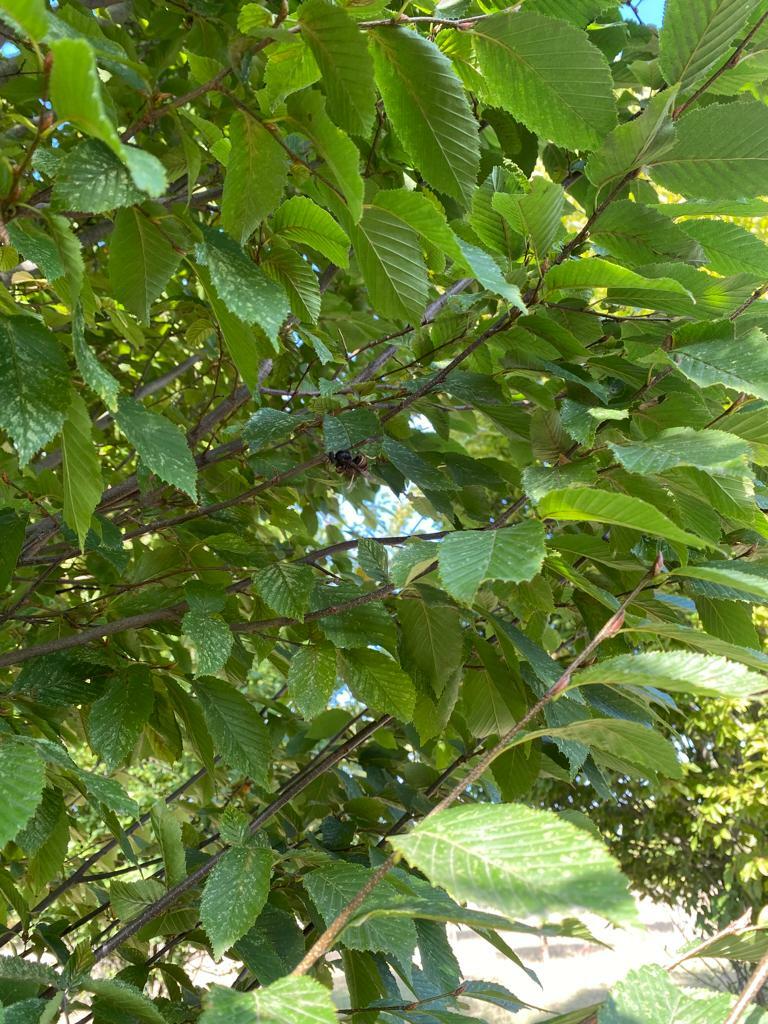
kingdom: Animalia
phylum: Arthropoda
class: Insecta
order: Hymenoptera
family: Vespidae
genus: Vespa
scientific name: Vespa velutina
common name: Asian hornet
